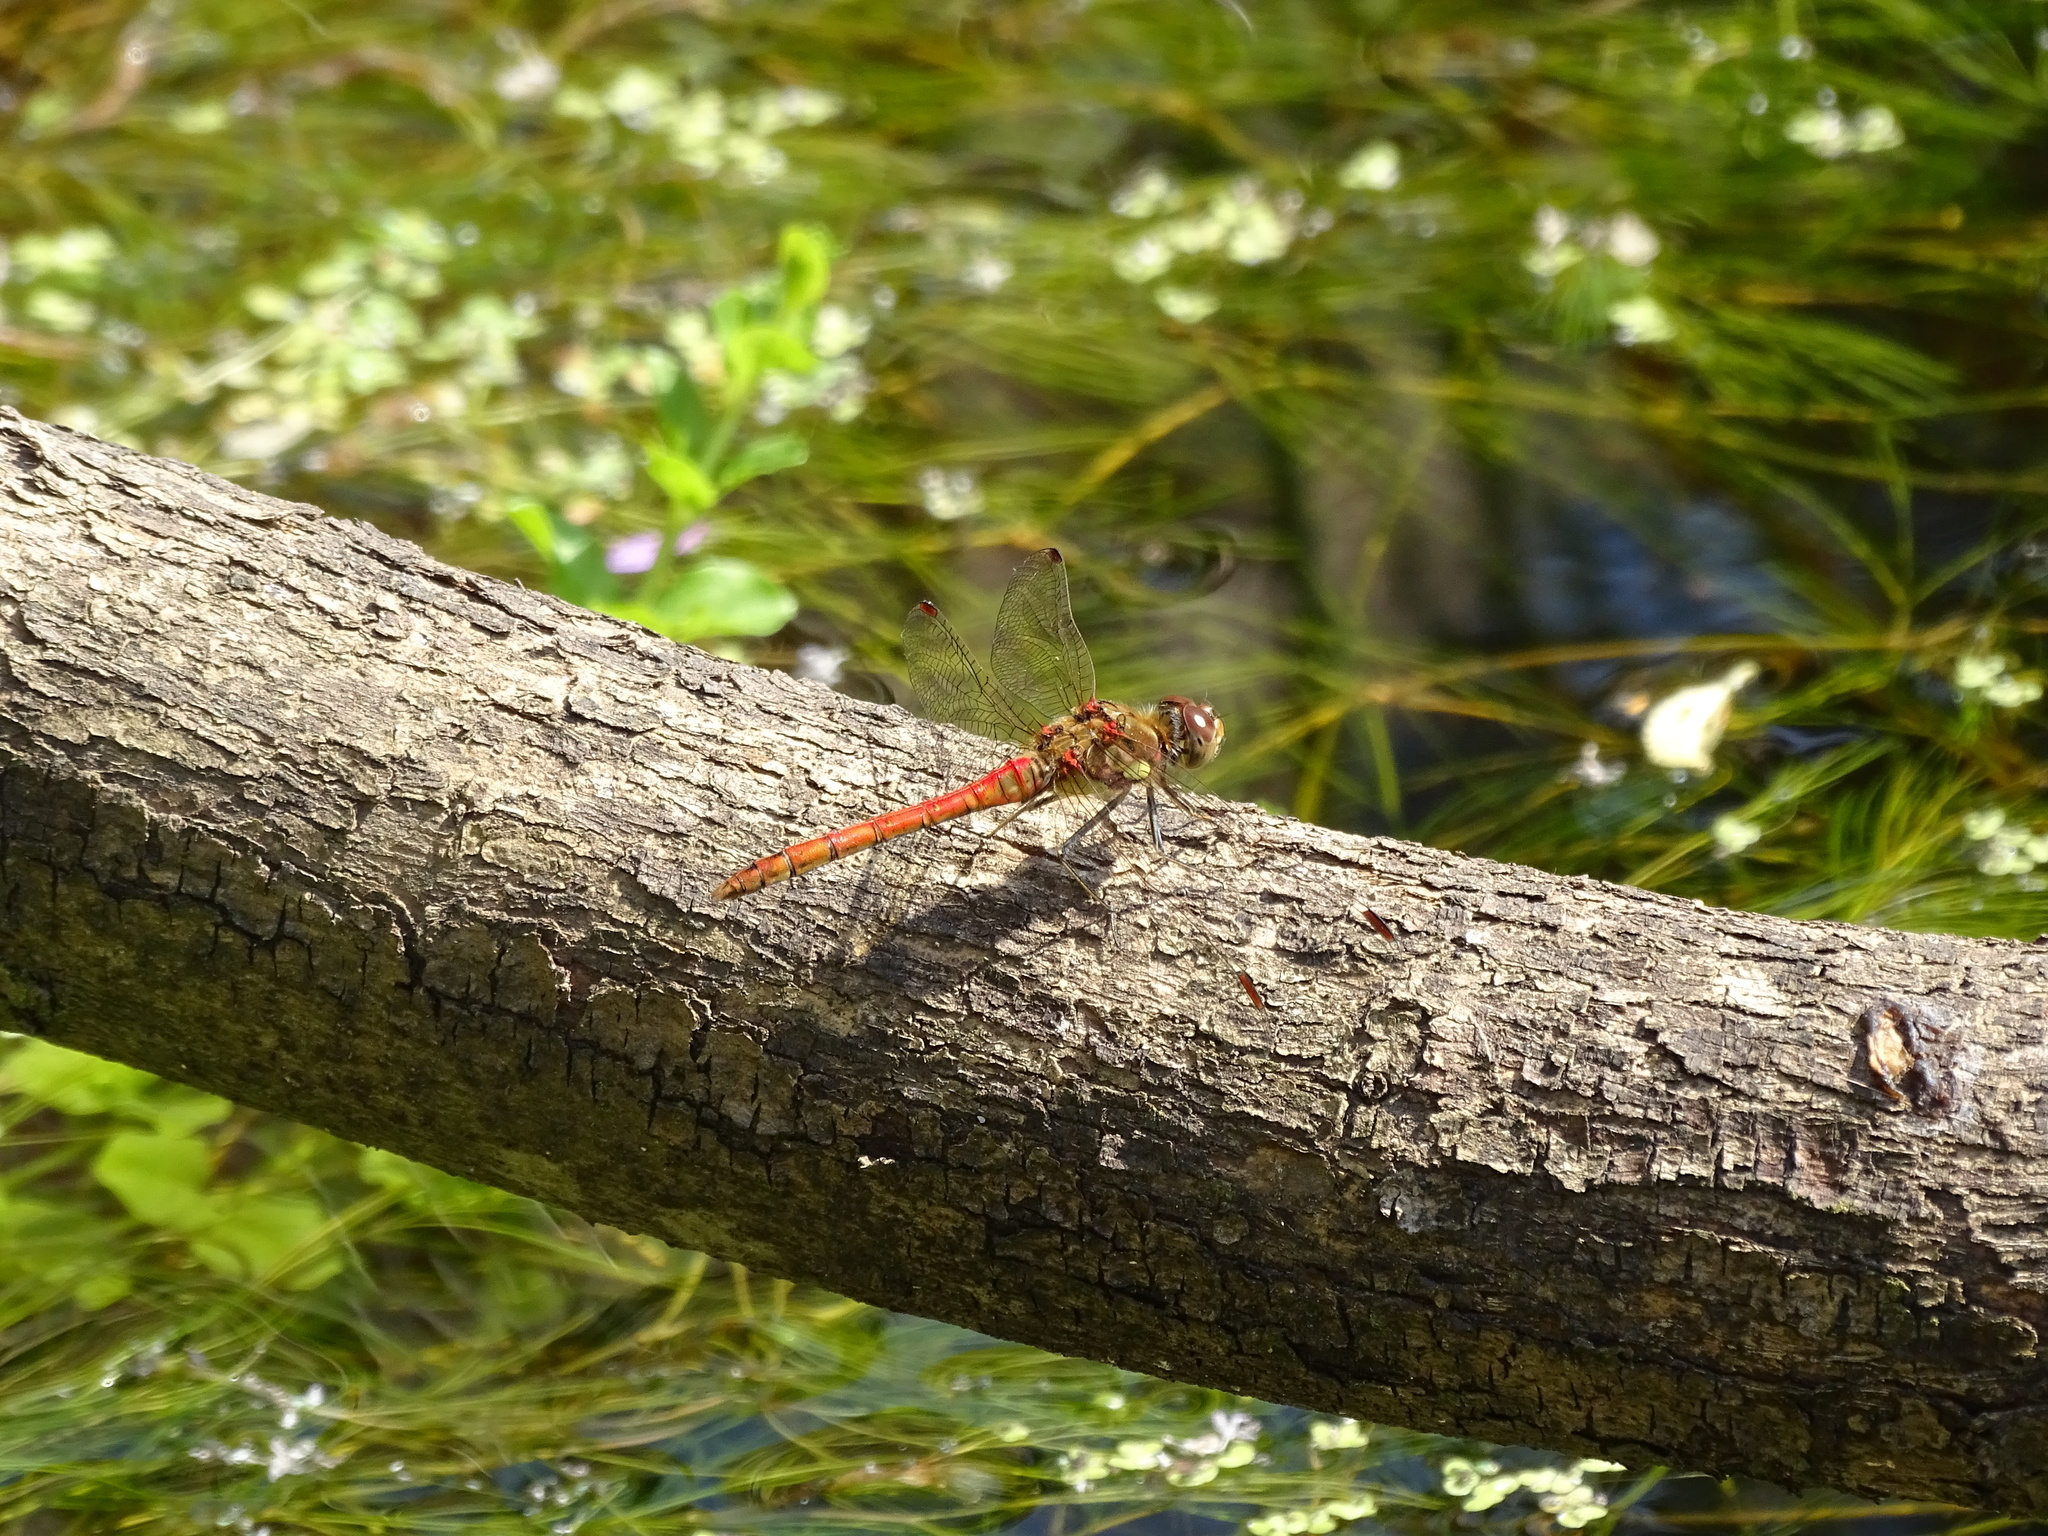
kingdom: Animalia
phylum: Arthropoda
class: Insecta
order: Odonata
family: Libellulidae
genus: Sympetrum
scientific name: Sympetrum striolatum
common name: Common darter
